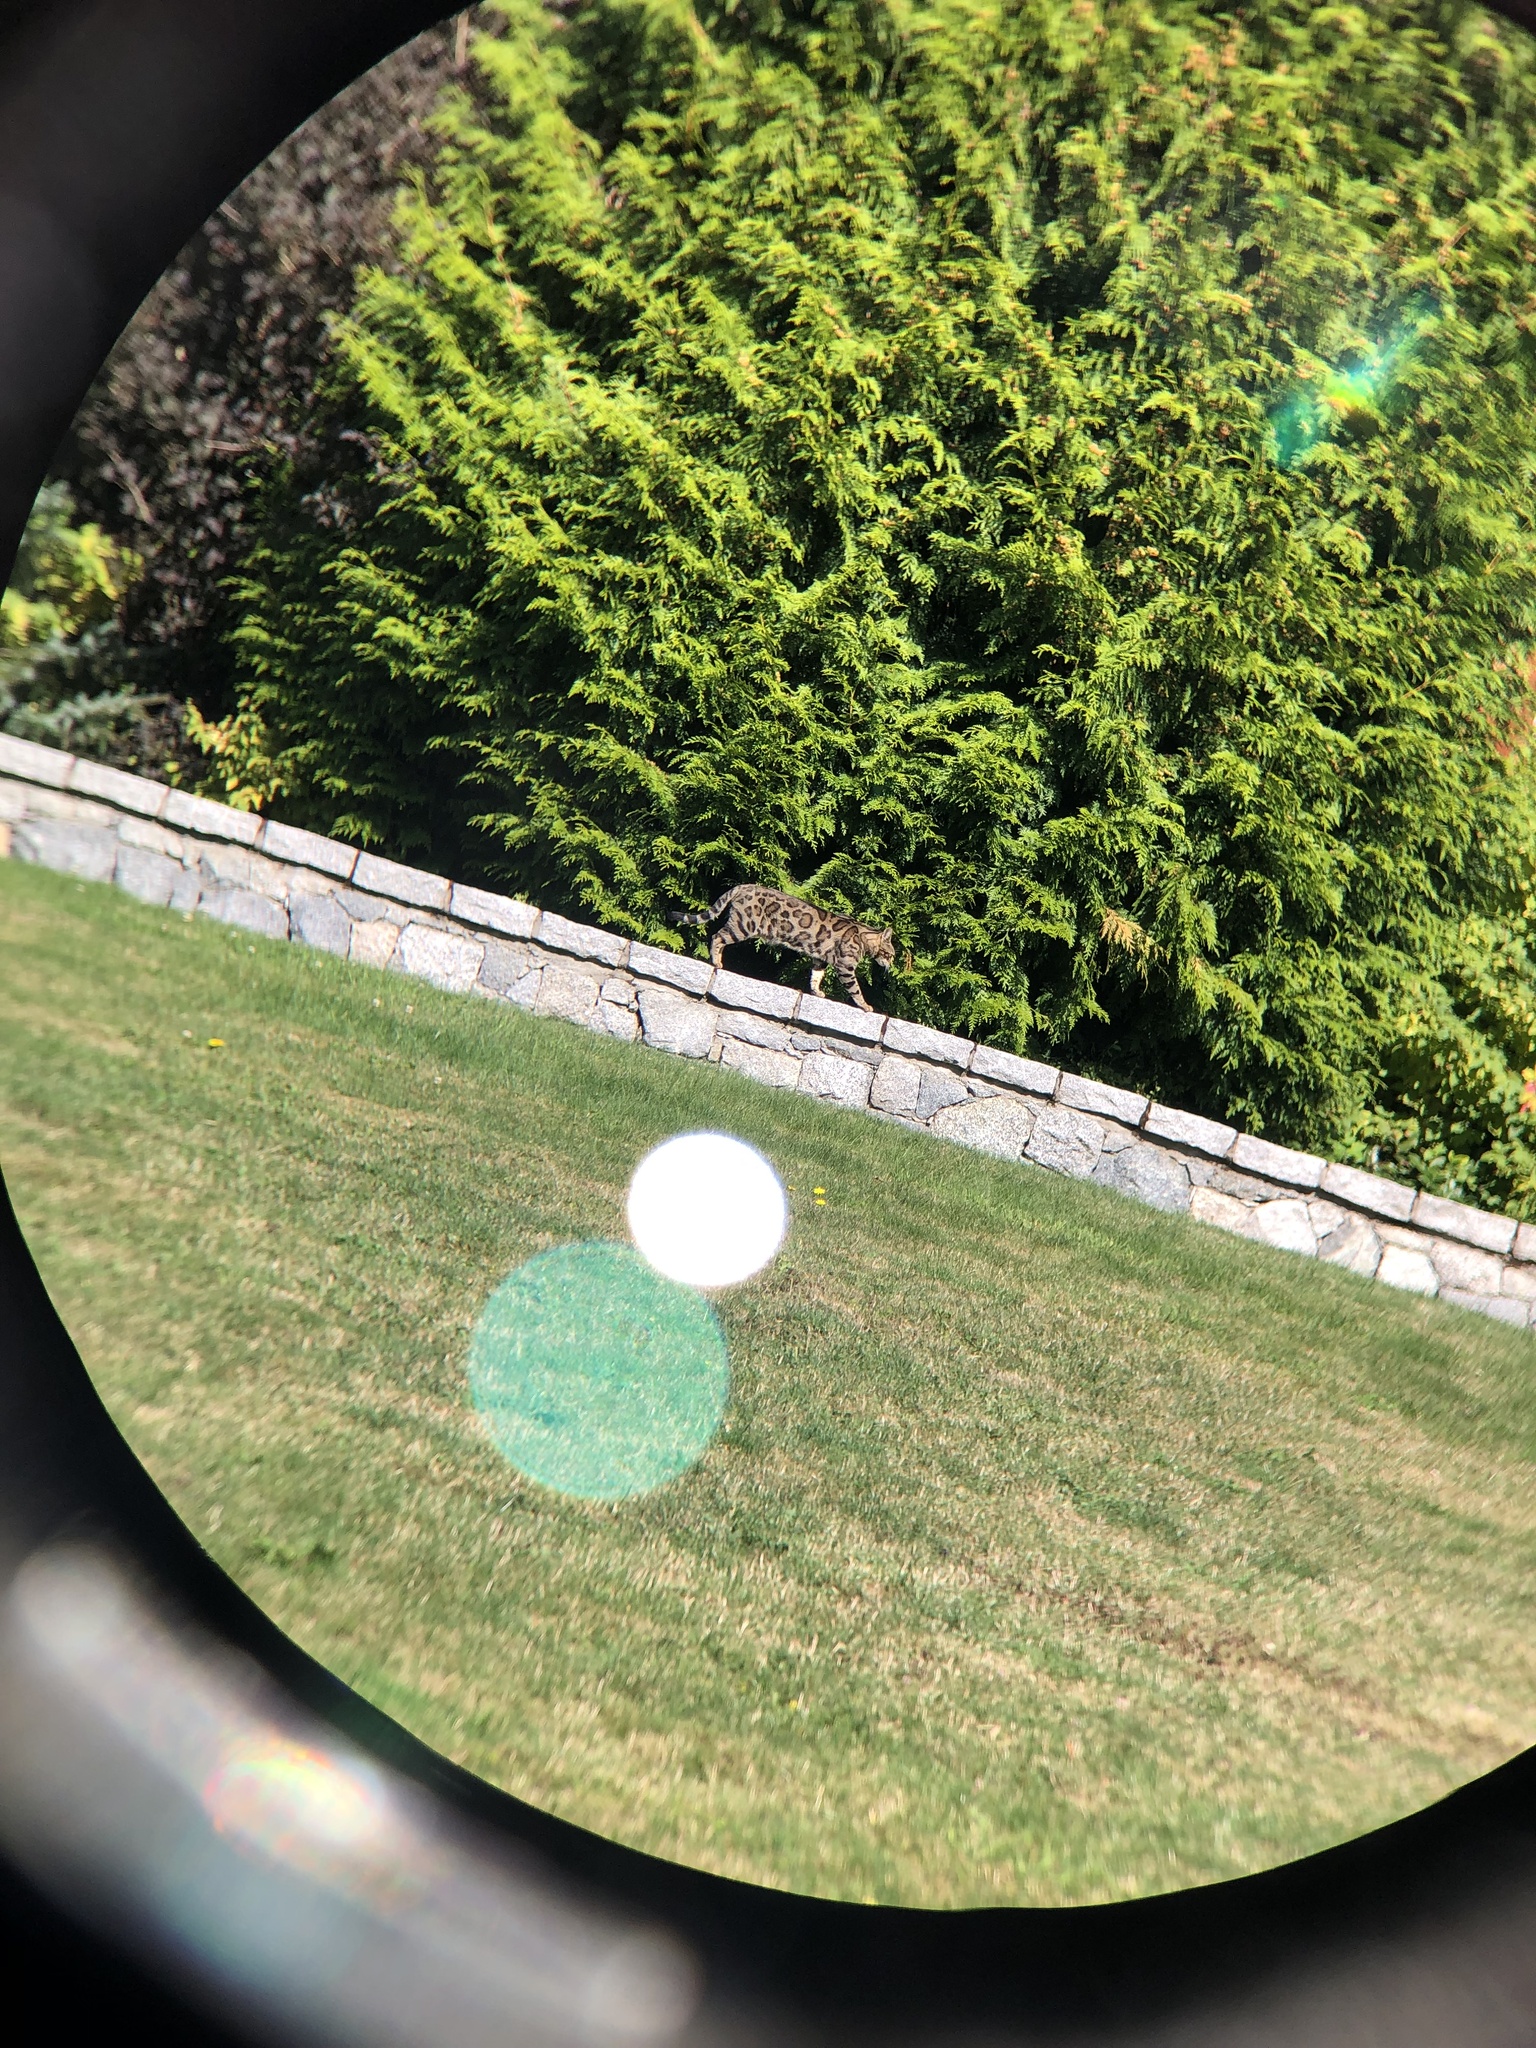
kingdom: Animalia
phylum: Chordata
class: Mammalia
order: Carnivora
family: Felidae
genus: Felis
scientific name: Felis catus
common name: Domestic cat
